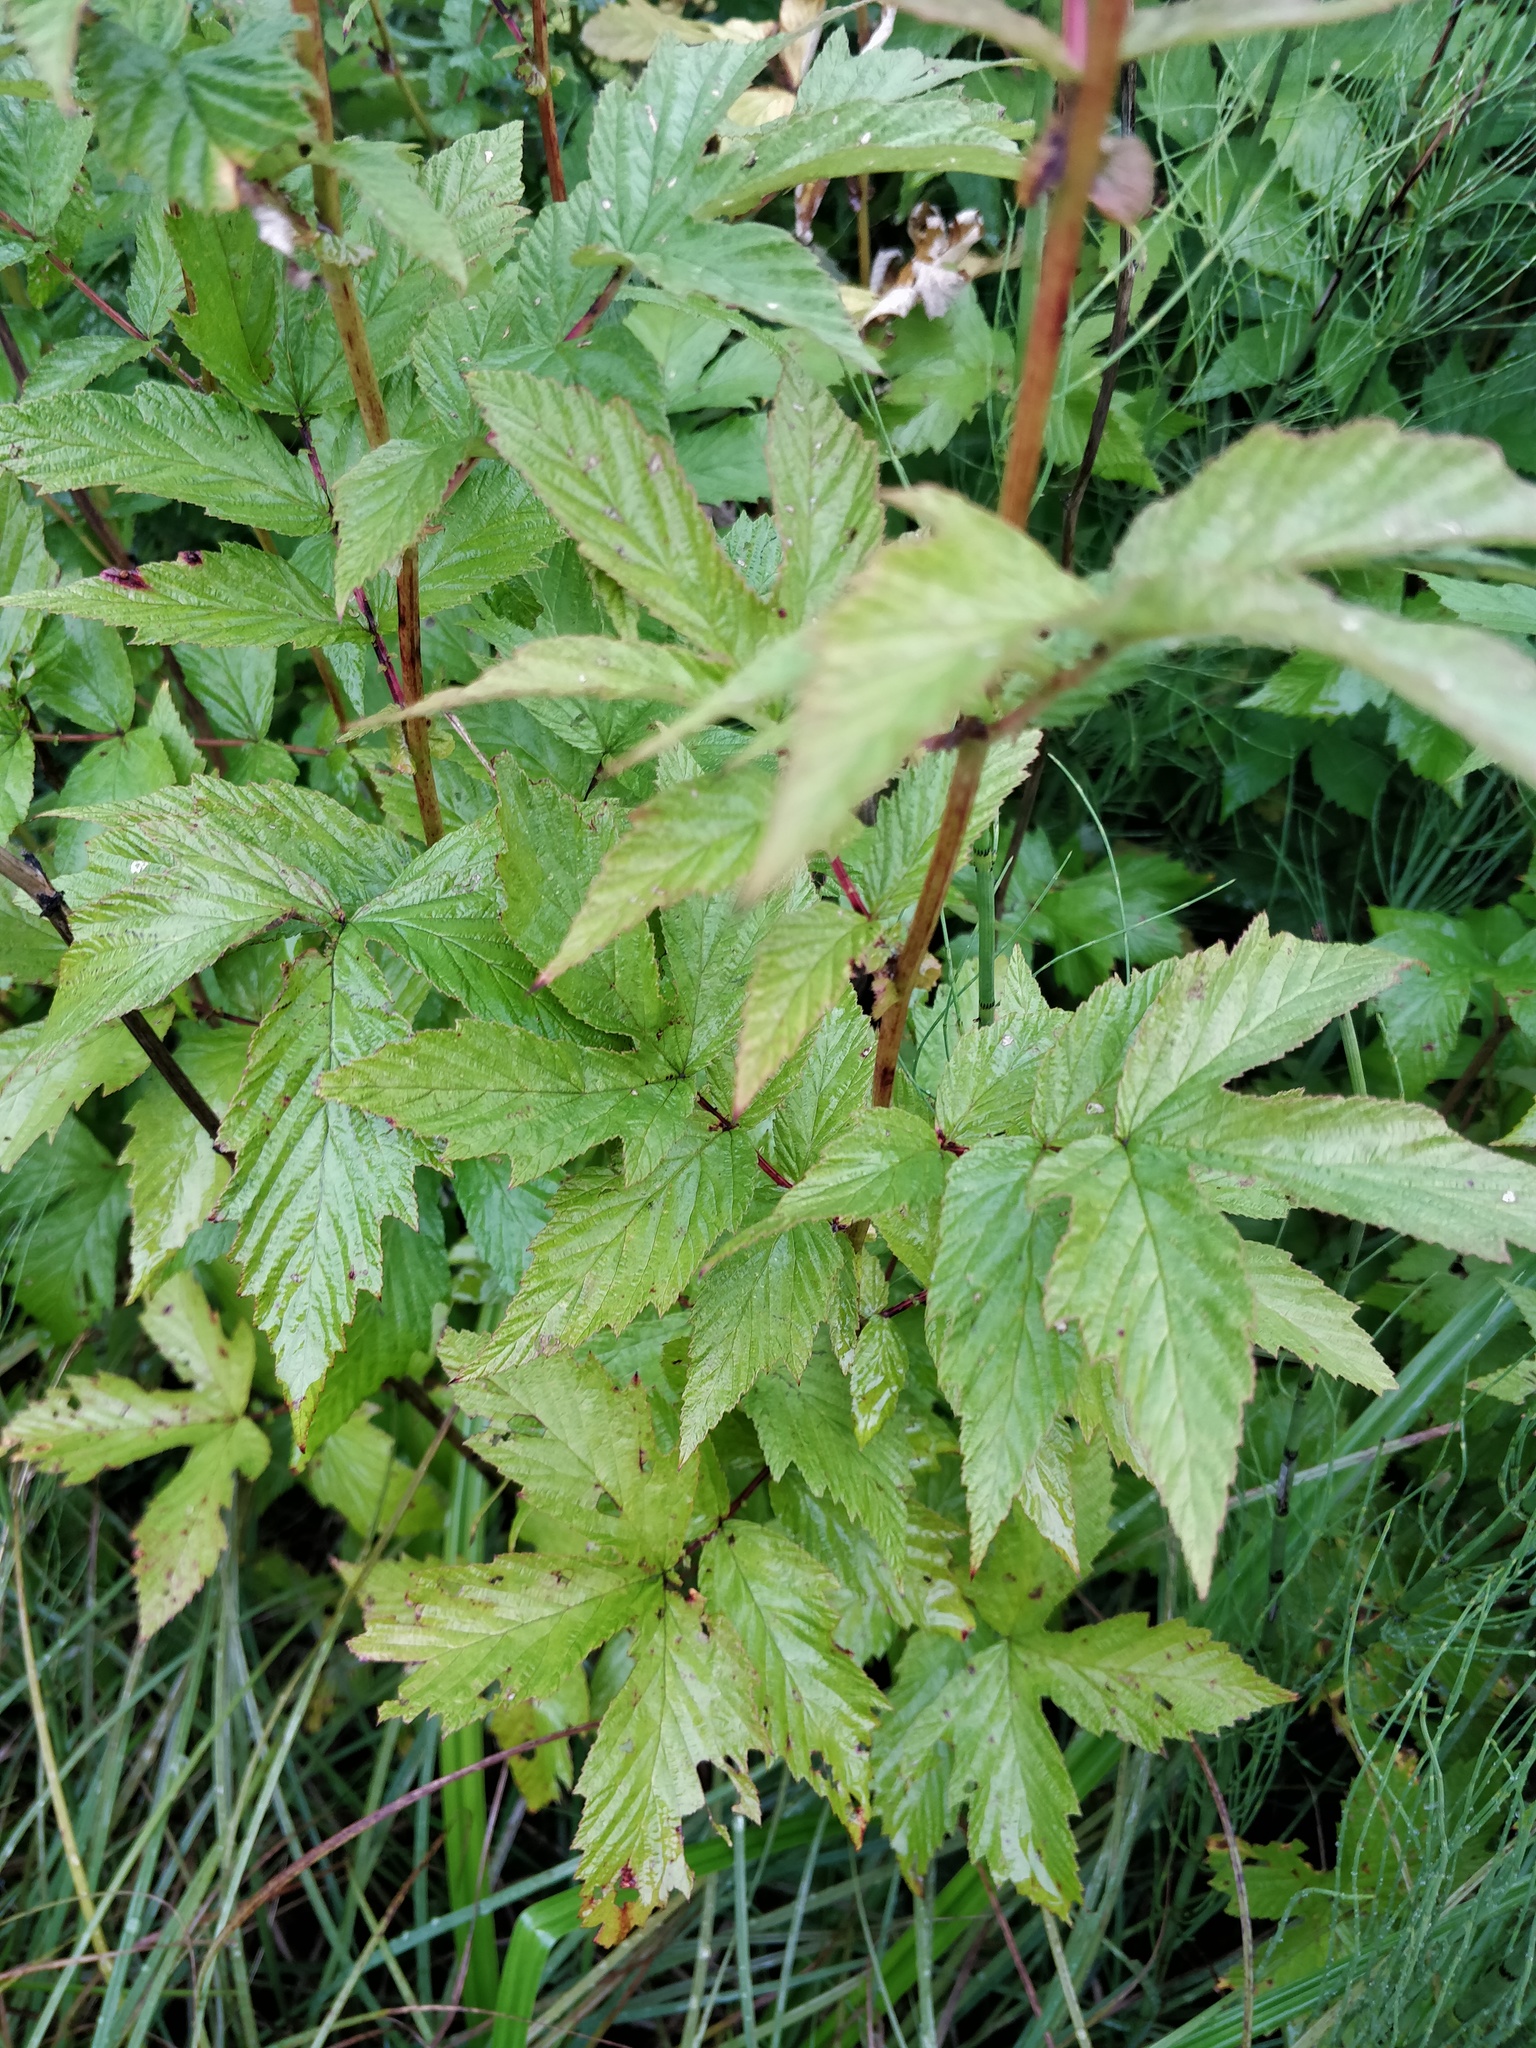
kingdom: Plantae
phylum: Tracheophyta
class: Magnoliopsida
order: Rosales
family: Rosaceae
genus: Filipendula
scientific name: Filipendula ulmaria
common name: Meadowsweet
